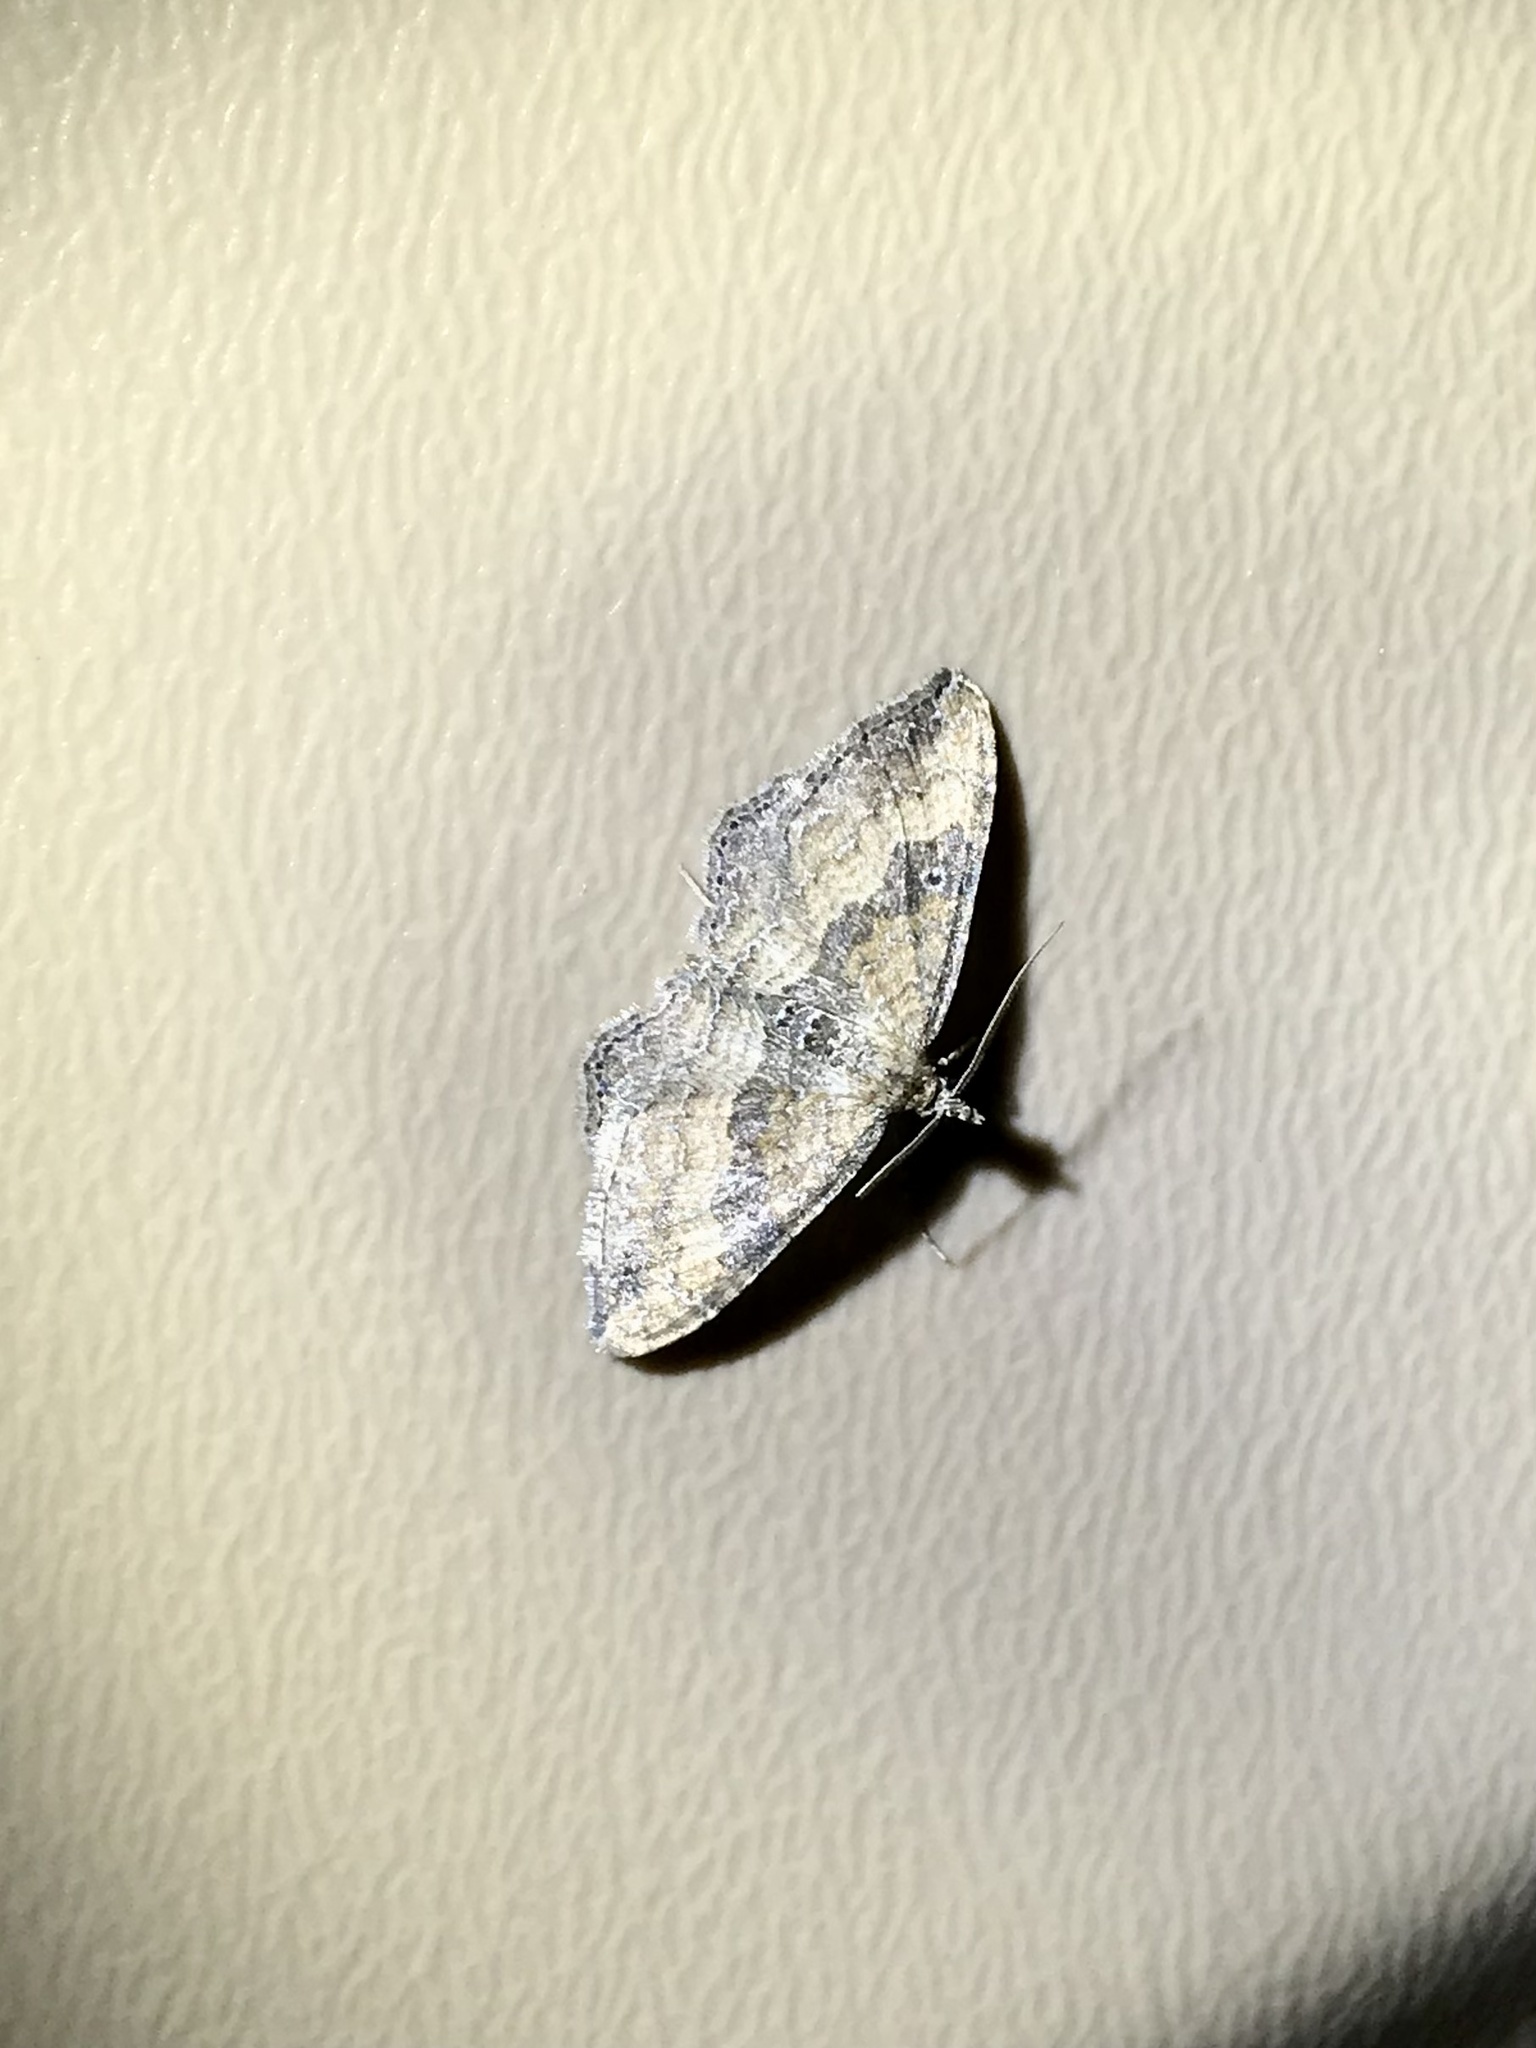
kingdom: Animalia
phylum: Arthropoda
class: Insecta
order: Lepidoptera
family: Geometridae
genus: Orthonama
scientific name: Orthonama obstipata
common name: The gem
